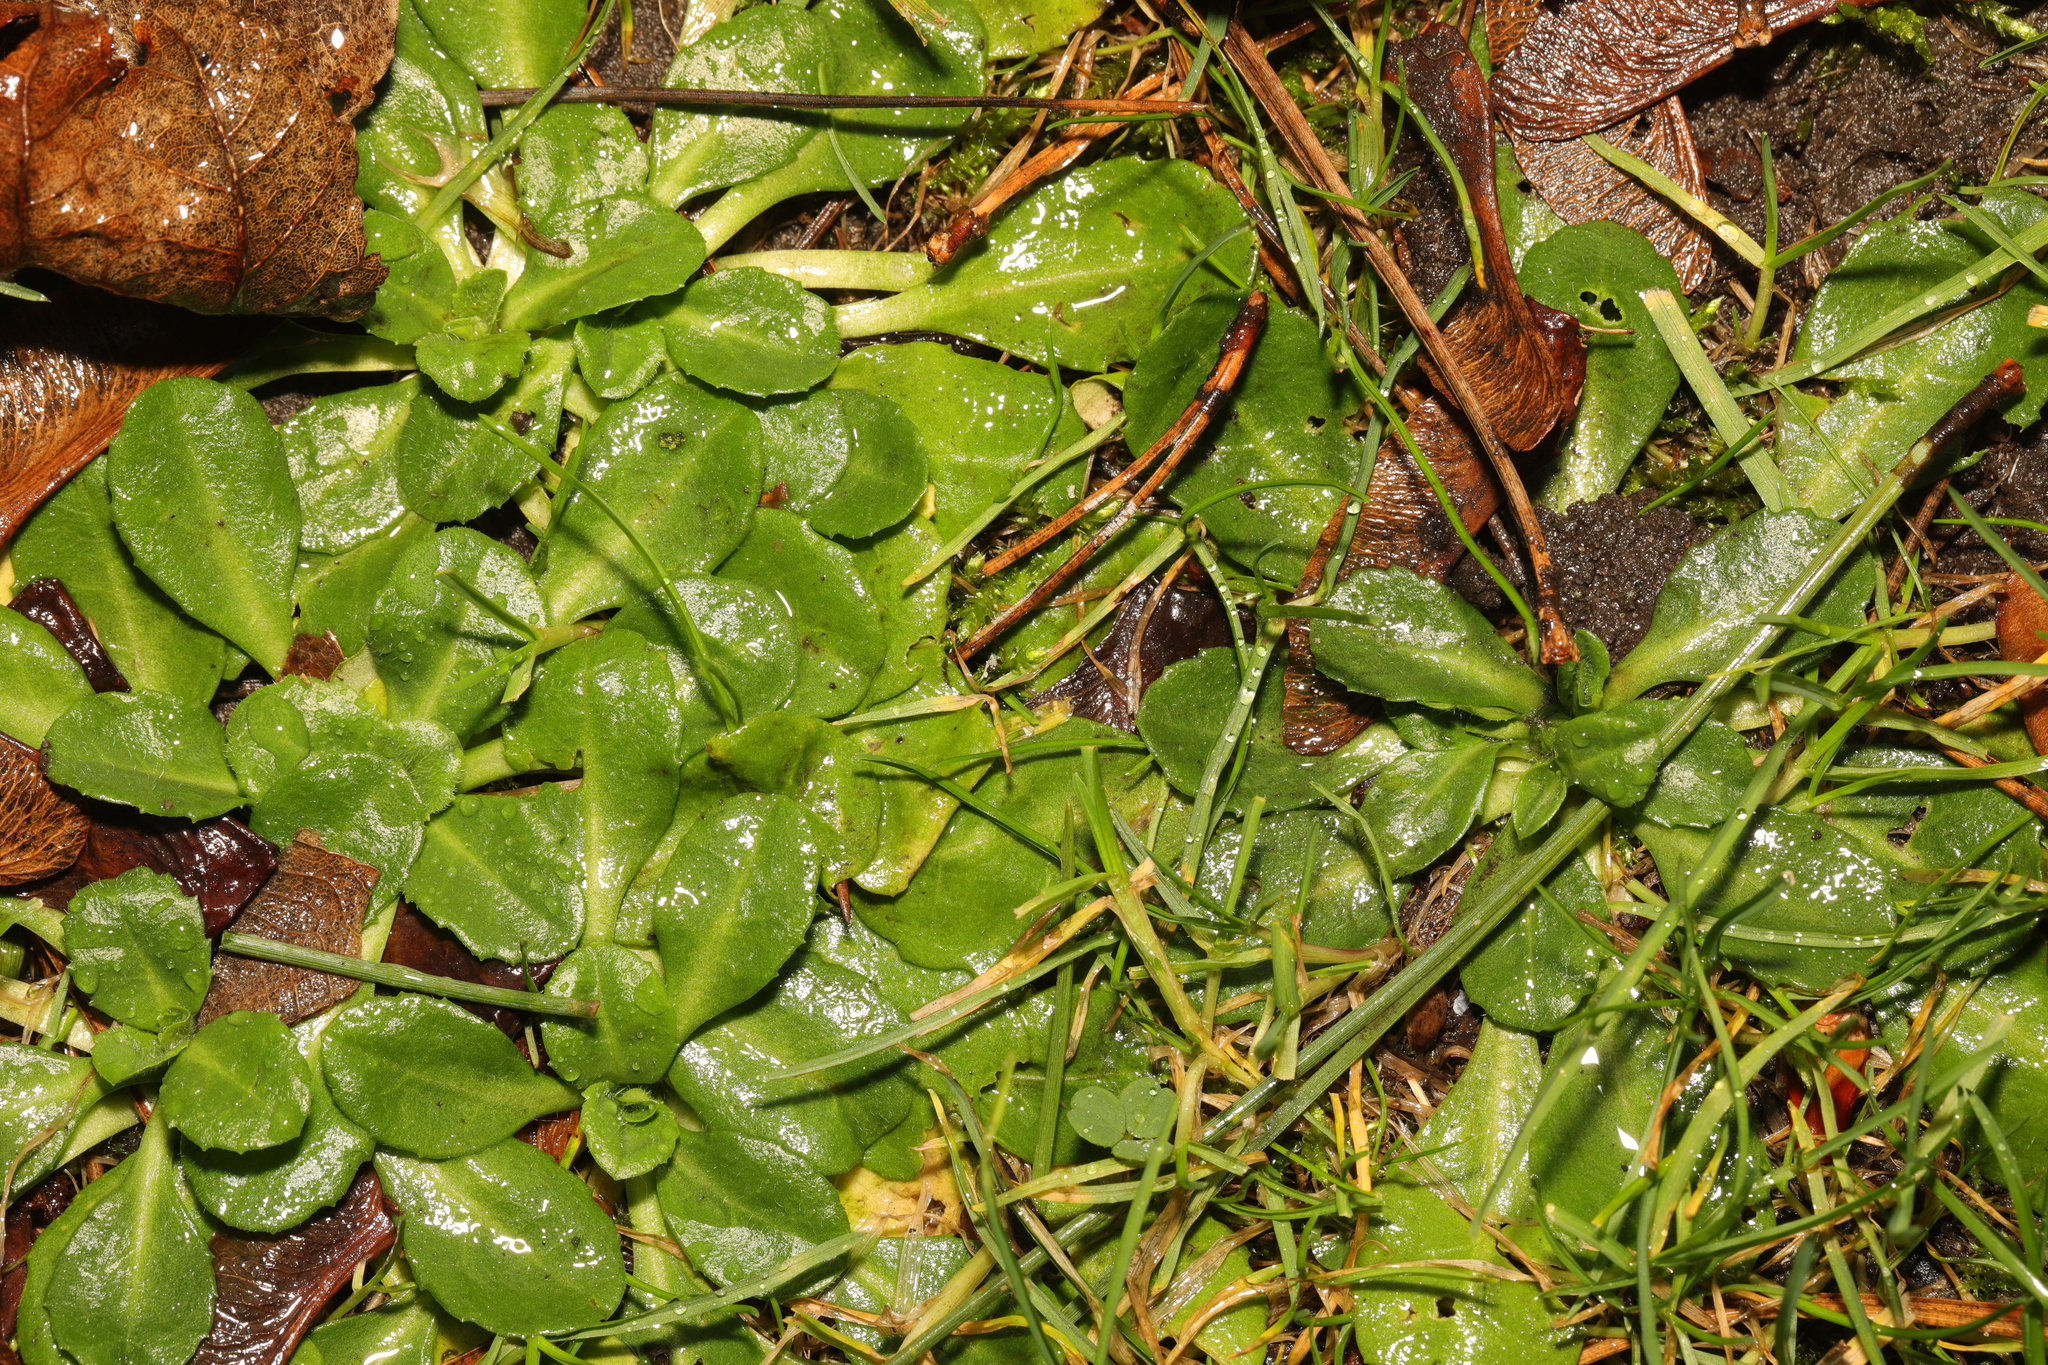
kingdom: Plantae
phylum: Tracheophyta
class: Magnoliopsida
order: Asterales
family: Asteraceae
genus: Bellis
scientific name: Bellis perennis
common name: Lawndaisy
